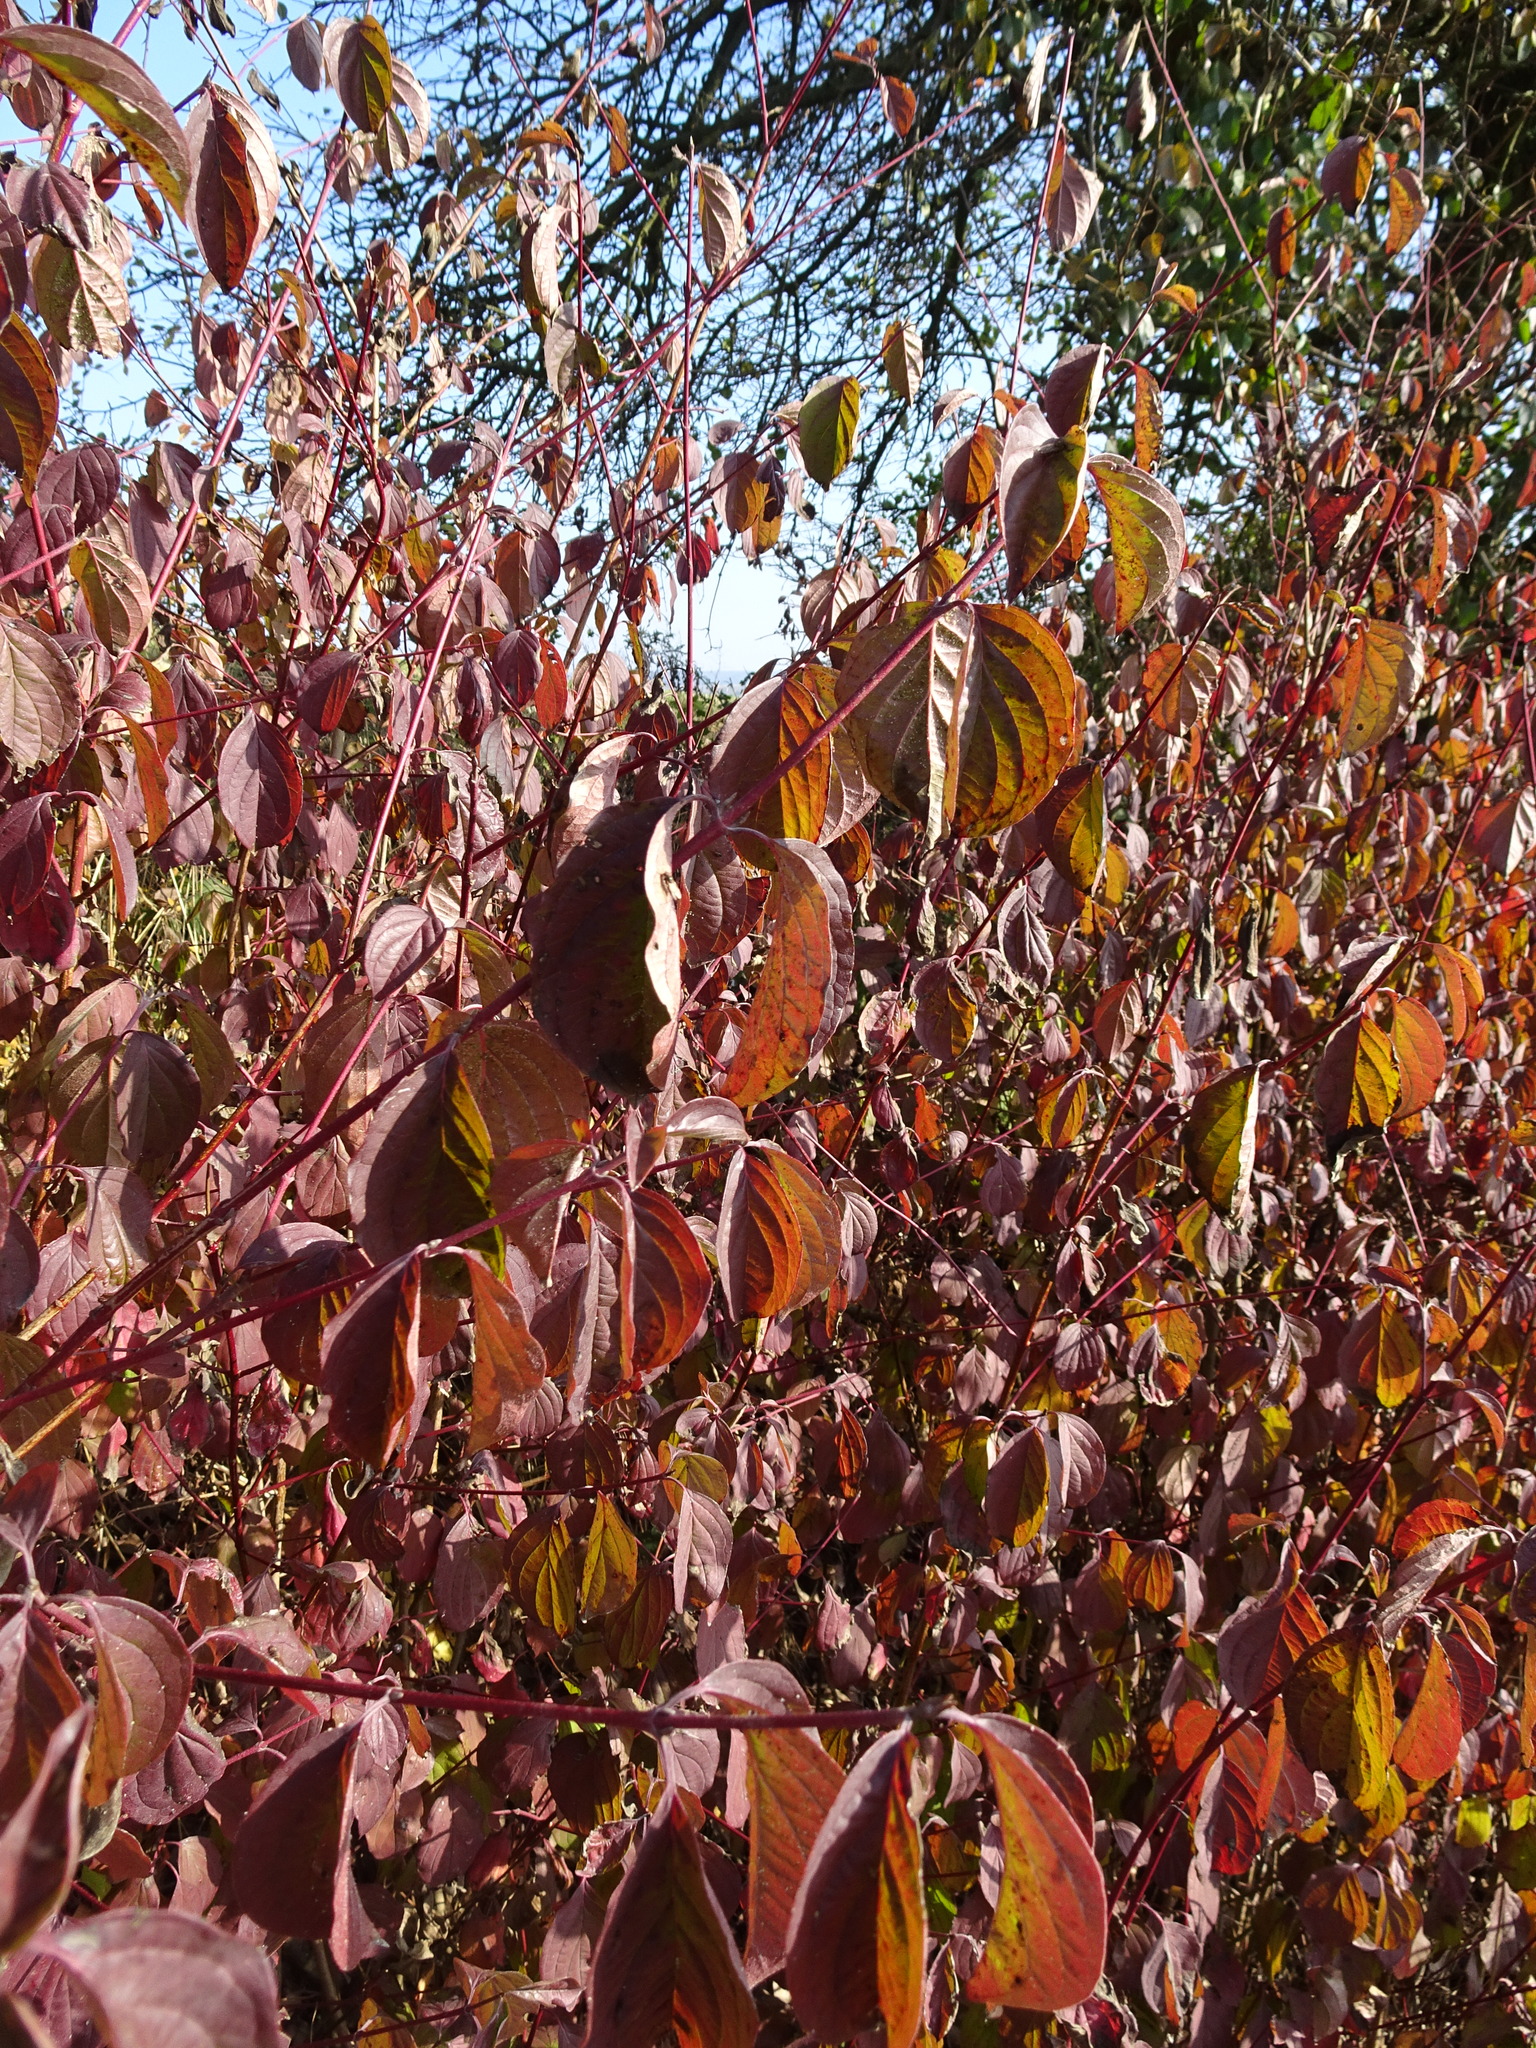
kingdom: Plantae
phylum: Tracheophyta
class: Magnoliopsida
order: Cornales
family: Cornaceae
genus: Cornus
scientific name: Cornus sanguinea
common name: Dogwood
